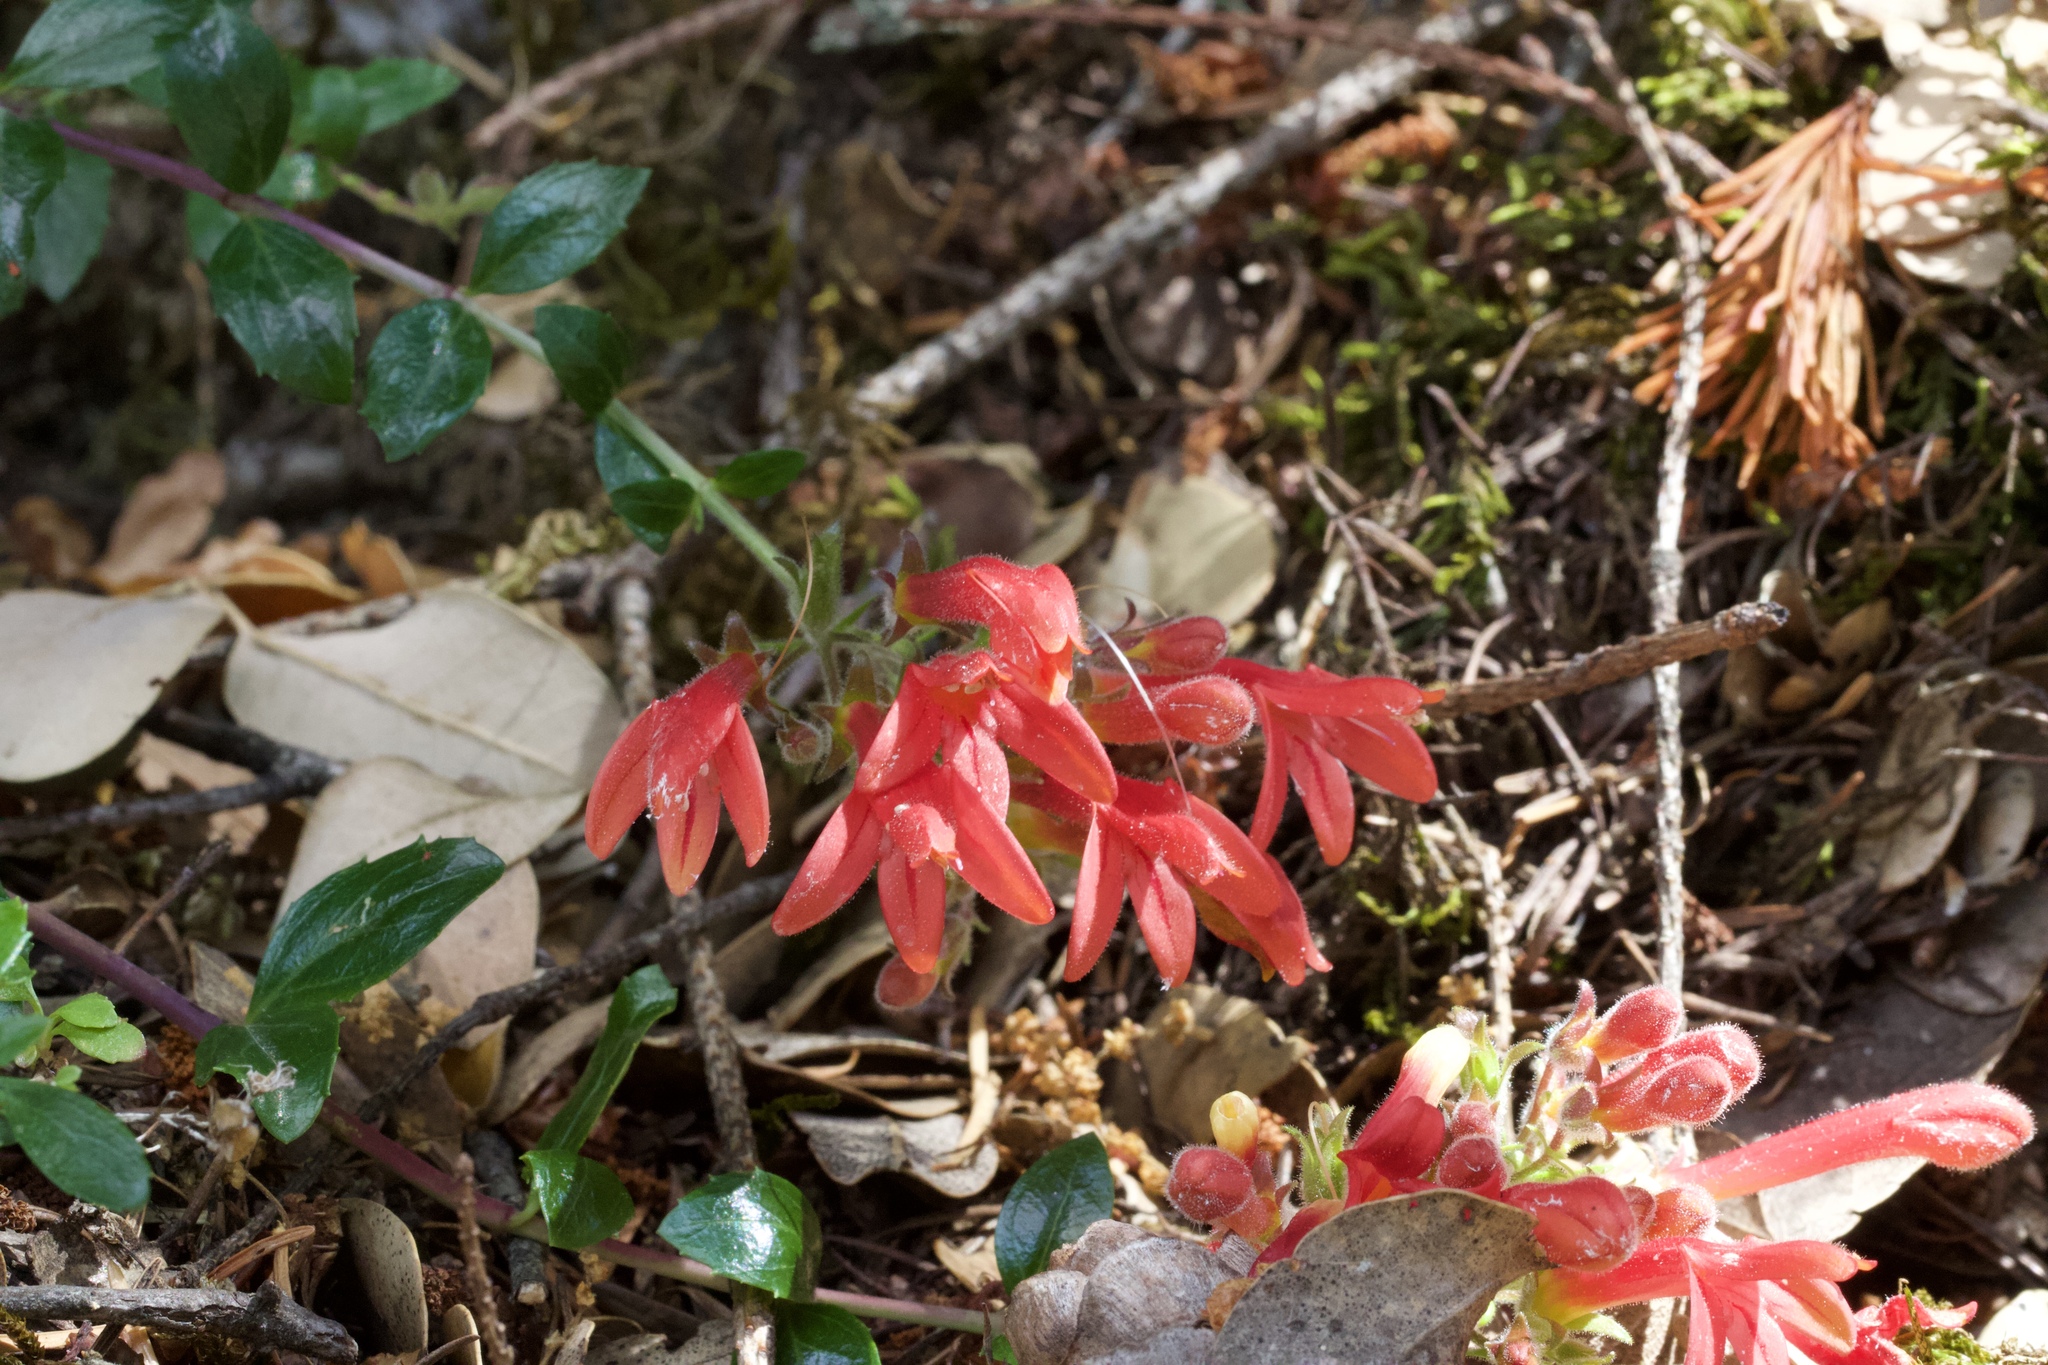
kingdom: Plantae
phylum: Tracheophyta
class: Magnoliopsida
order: Lamiales
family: Plantaginaceae
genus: Keckiella
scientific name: Keckiella corymbosa
